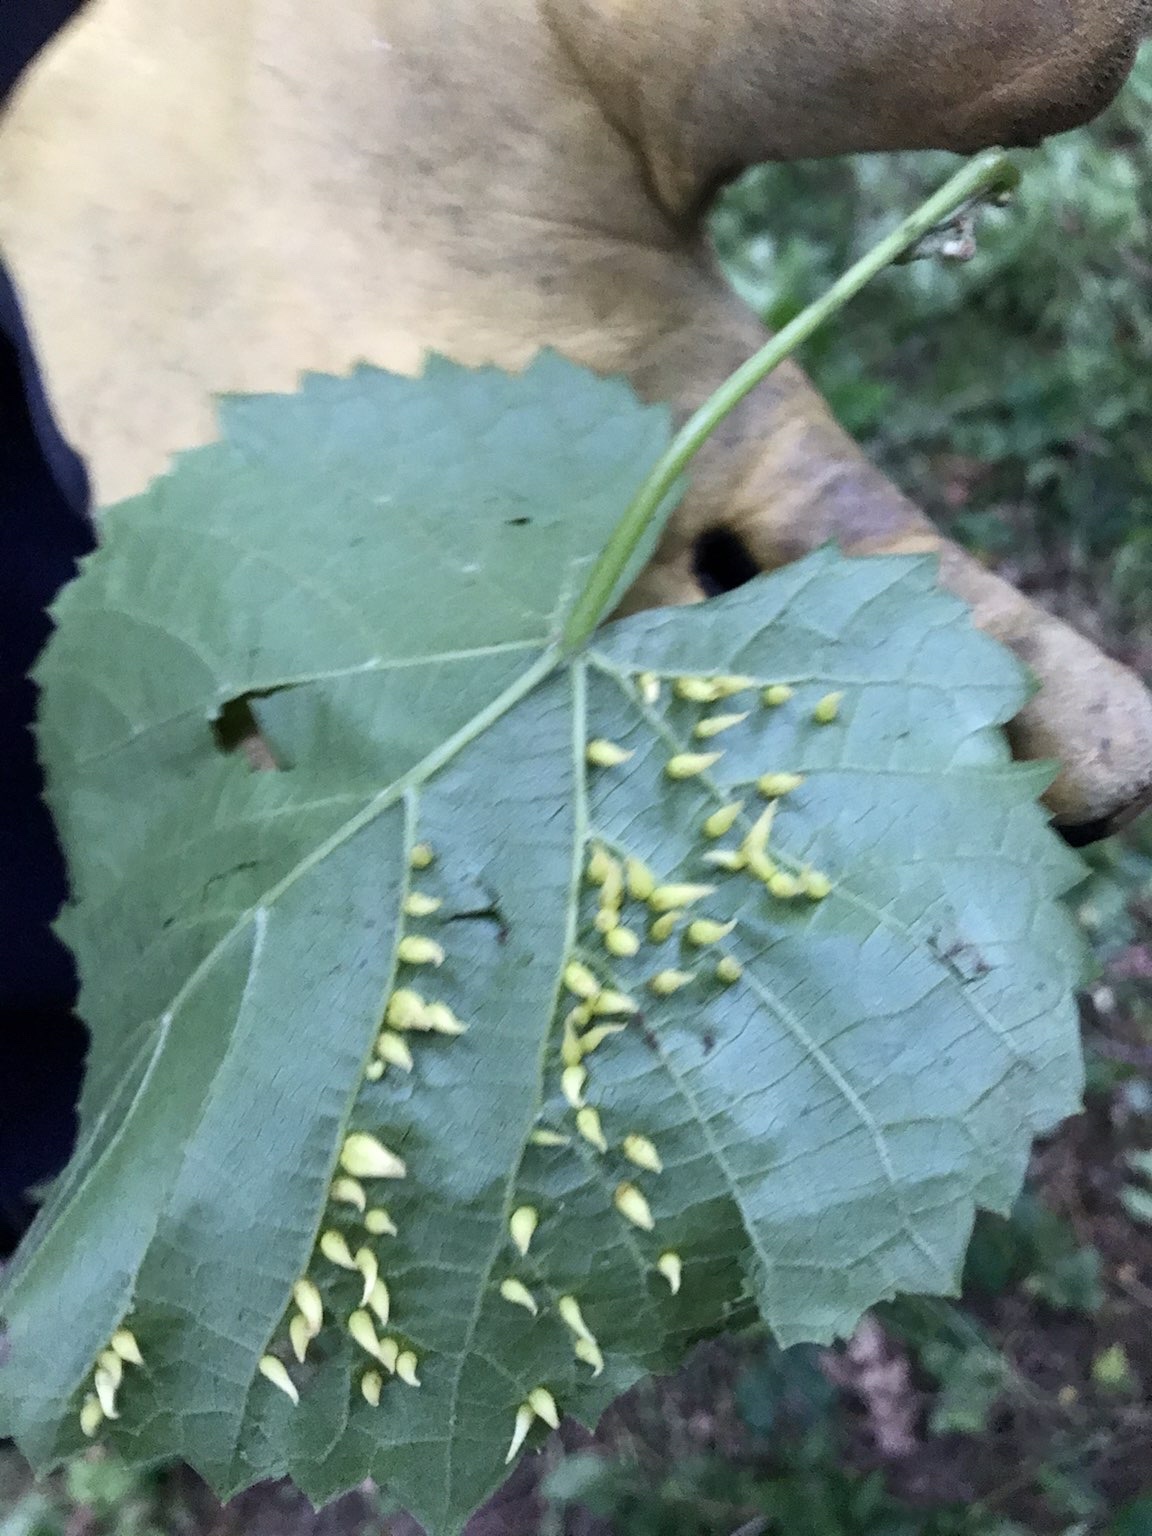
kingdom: Animalia
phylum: Arthropoda
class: Insecta
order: Diptera
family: Cecidomyiidae
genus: Ampelomyia
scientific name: Ampelomyia viticola
